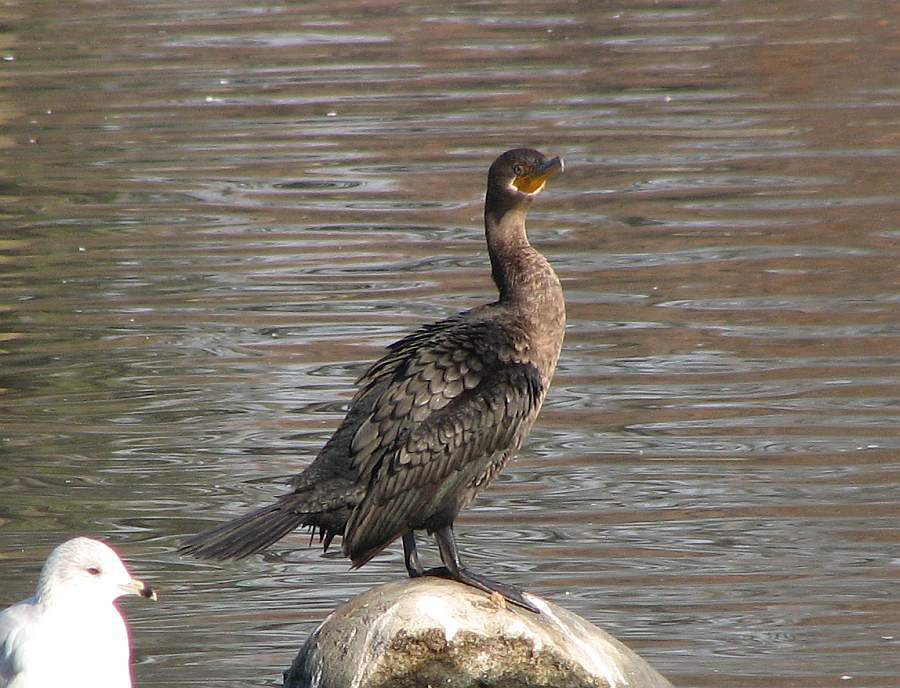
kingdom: Animalia
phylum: Chordata
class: Aves
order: Suliformes
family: Phalacrocoracidae
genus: Phalacrocorax
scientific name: Phalacrocorax auritus
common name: Double-crested cormorant
